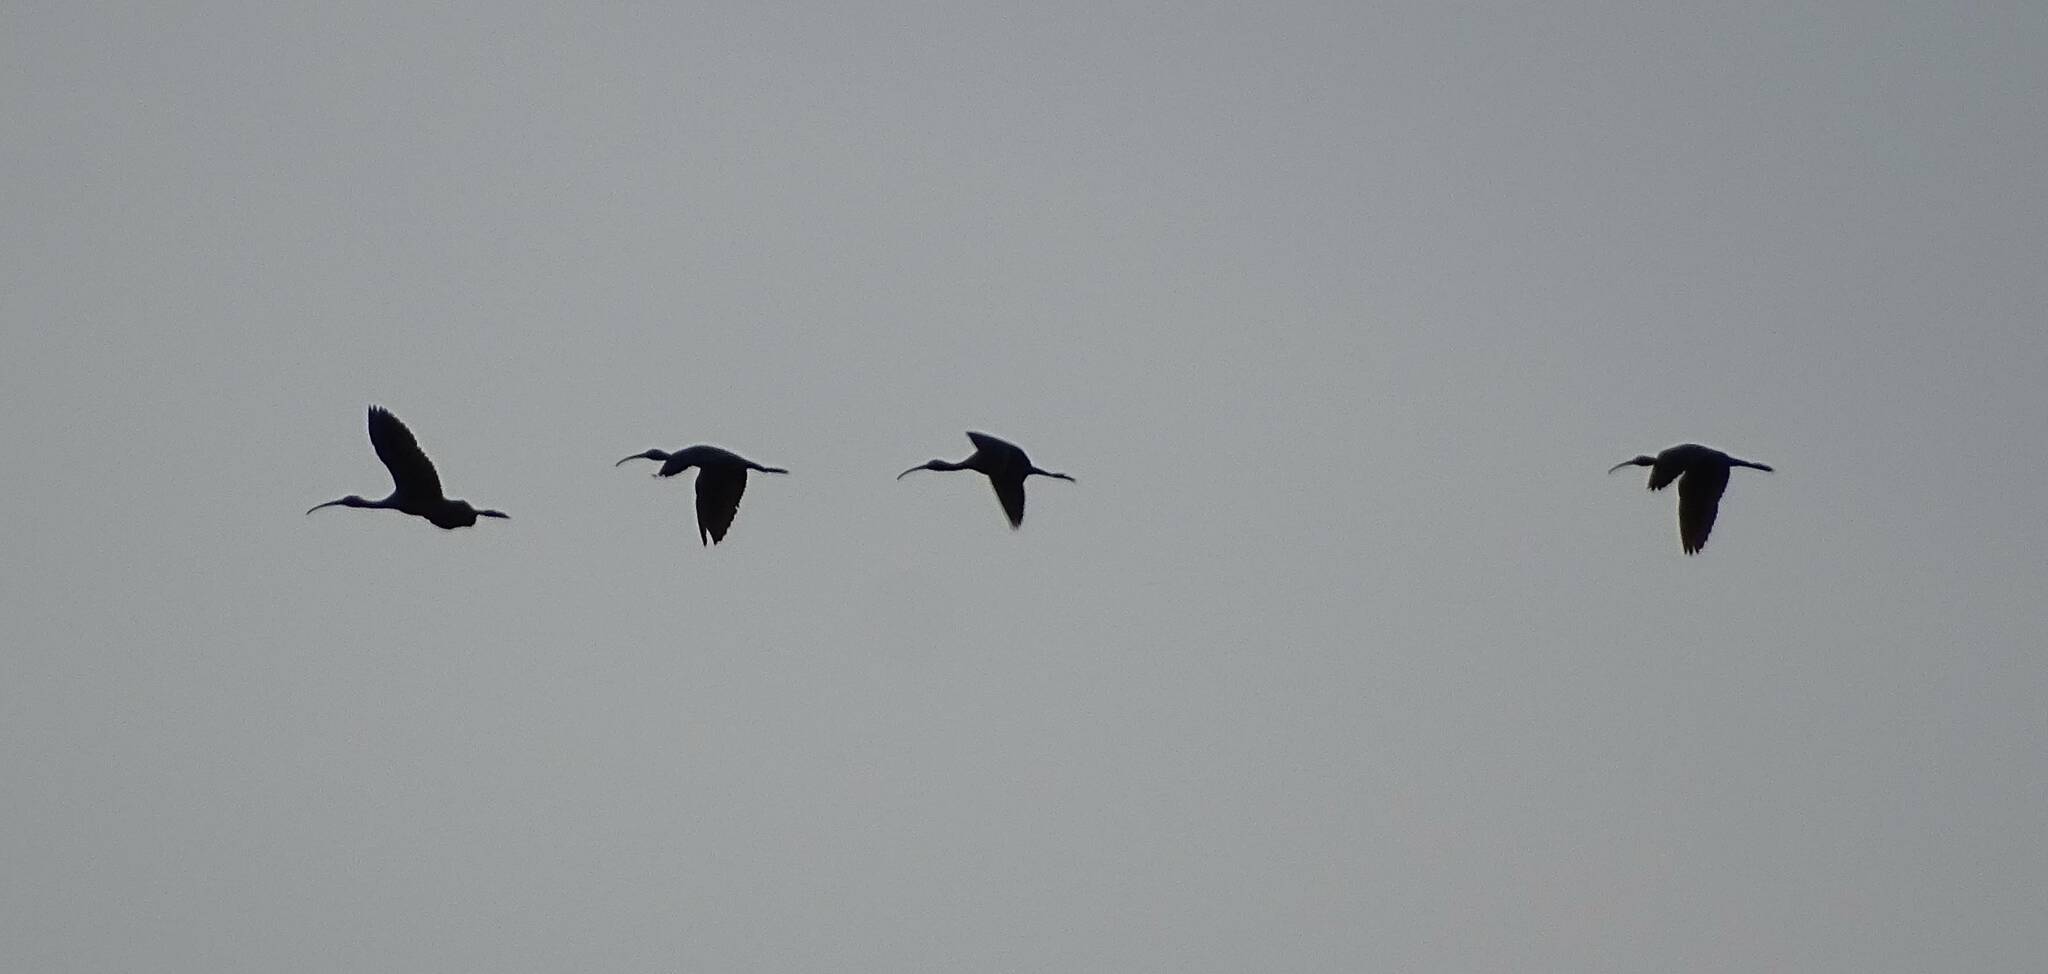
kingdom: Animalia
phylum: Chordata
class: Aves
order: Pelecaniformes
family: Threskiornithidae
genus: Plegadis
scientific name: Plegadis falcinellus
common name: Glossy ibis
